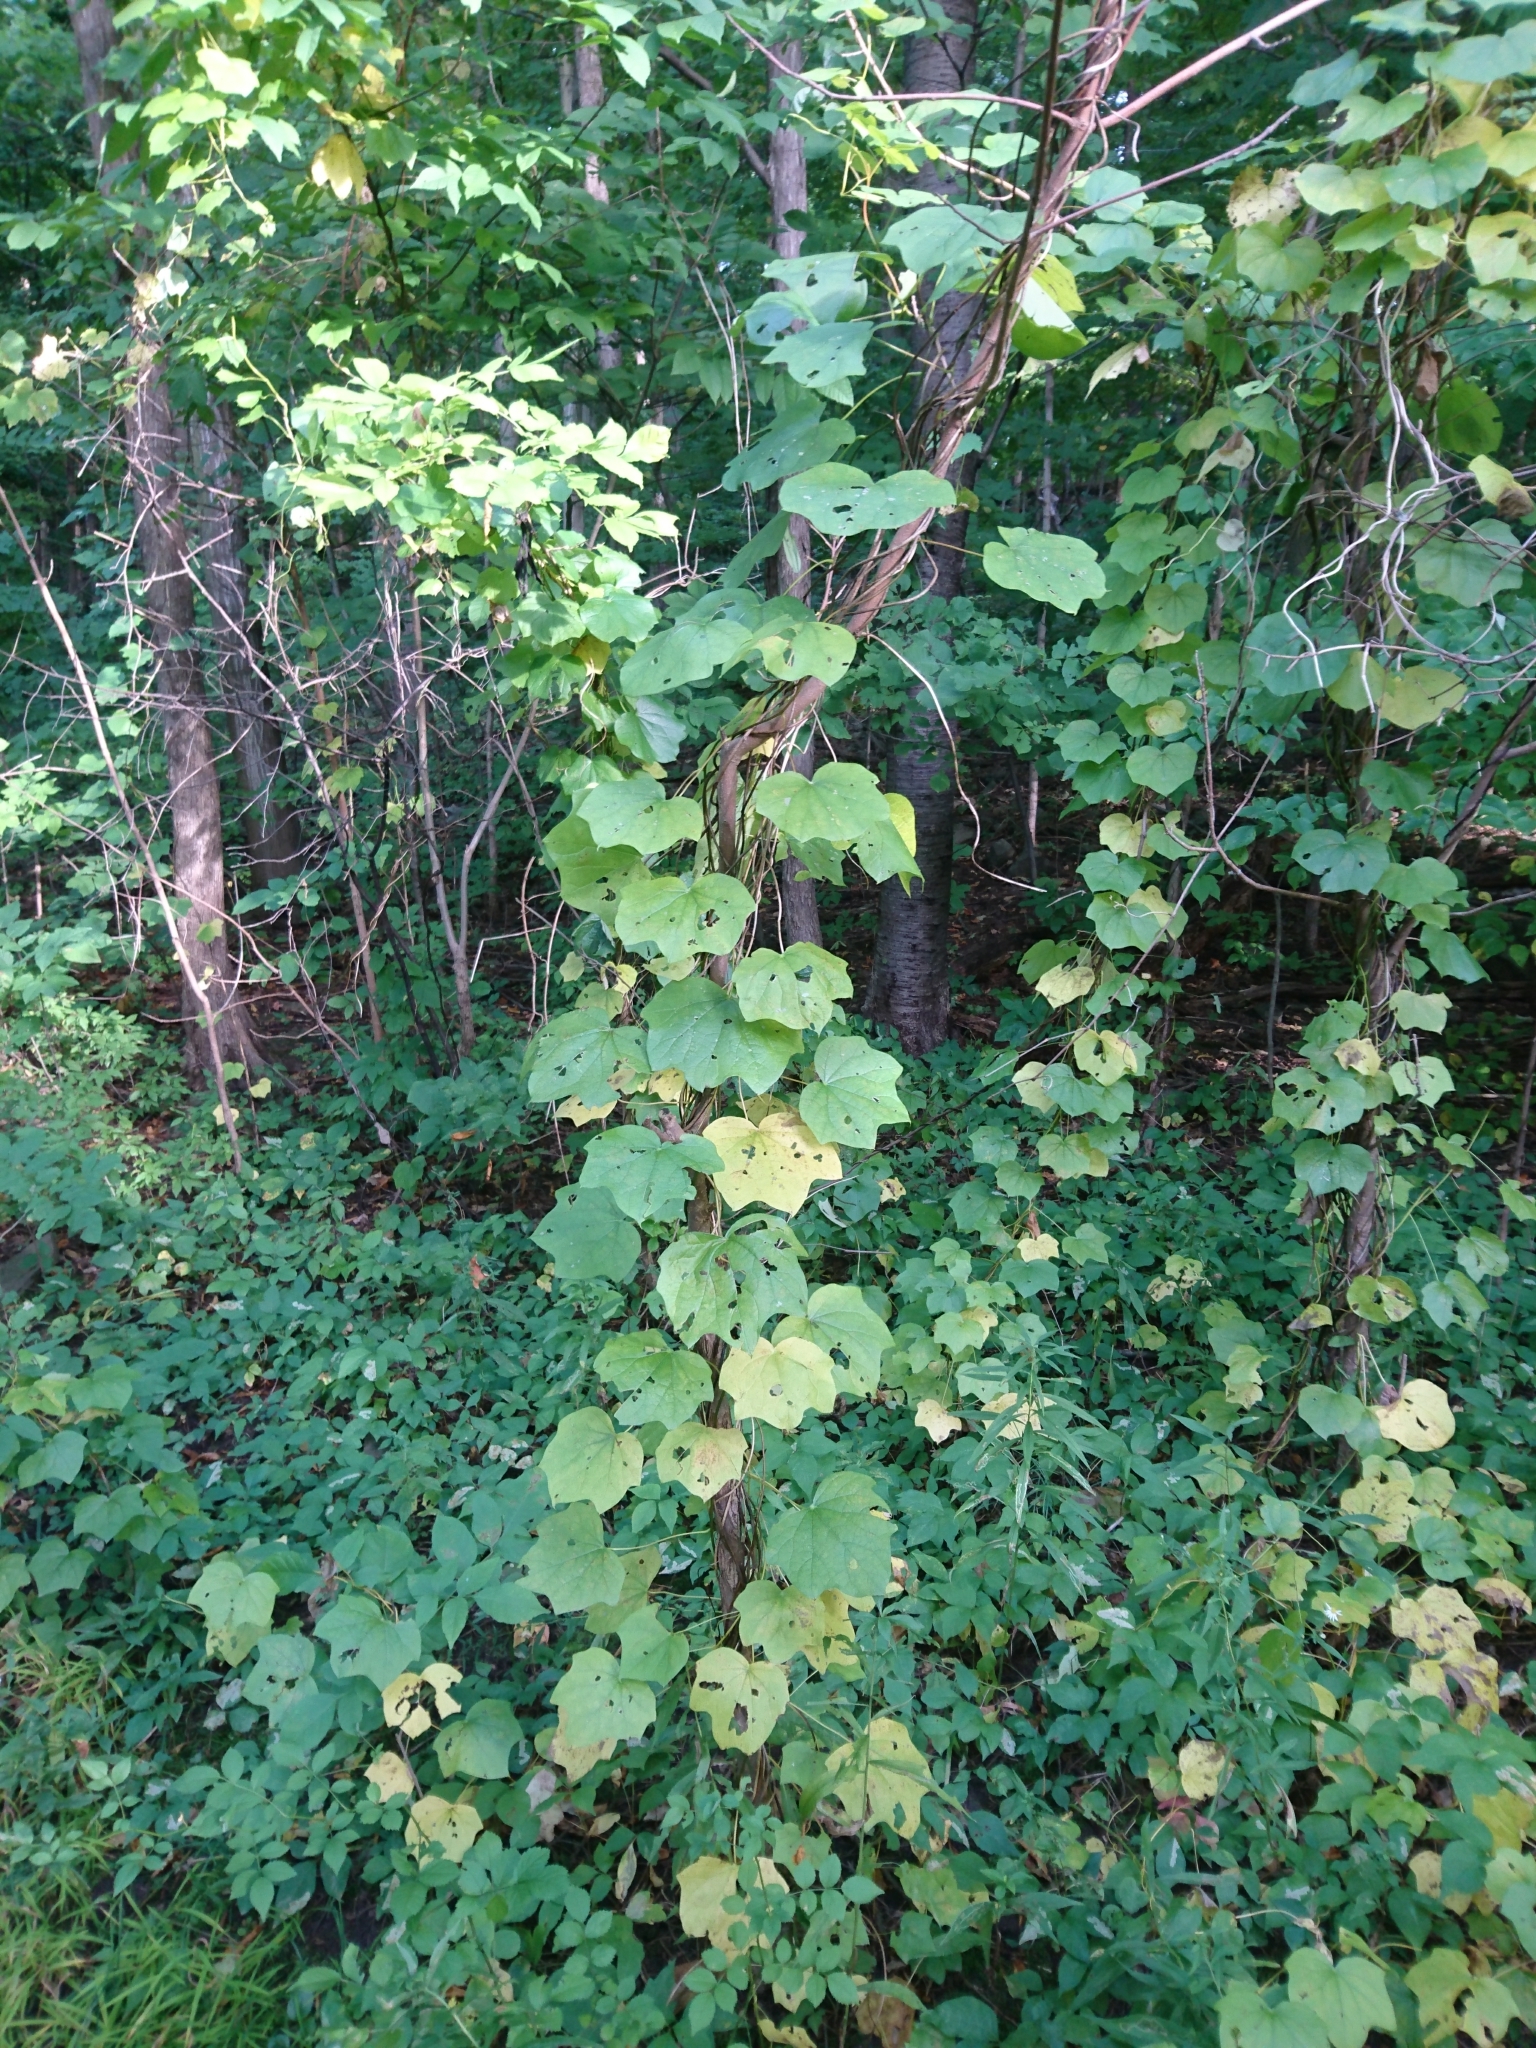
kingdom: Plantae
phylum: Tracheophyta
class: Magnoliopsida
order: Ranunculales
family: Menispermaceae
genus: Menispermum
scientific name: Menispermum canadense
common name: Moonseed
